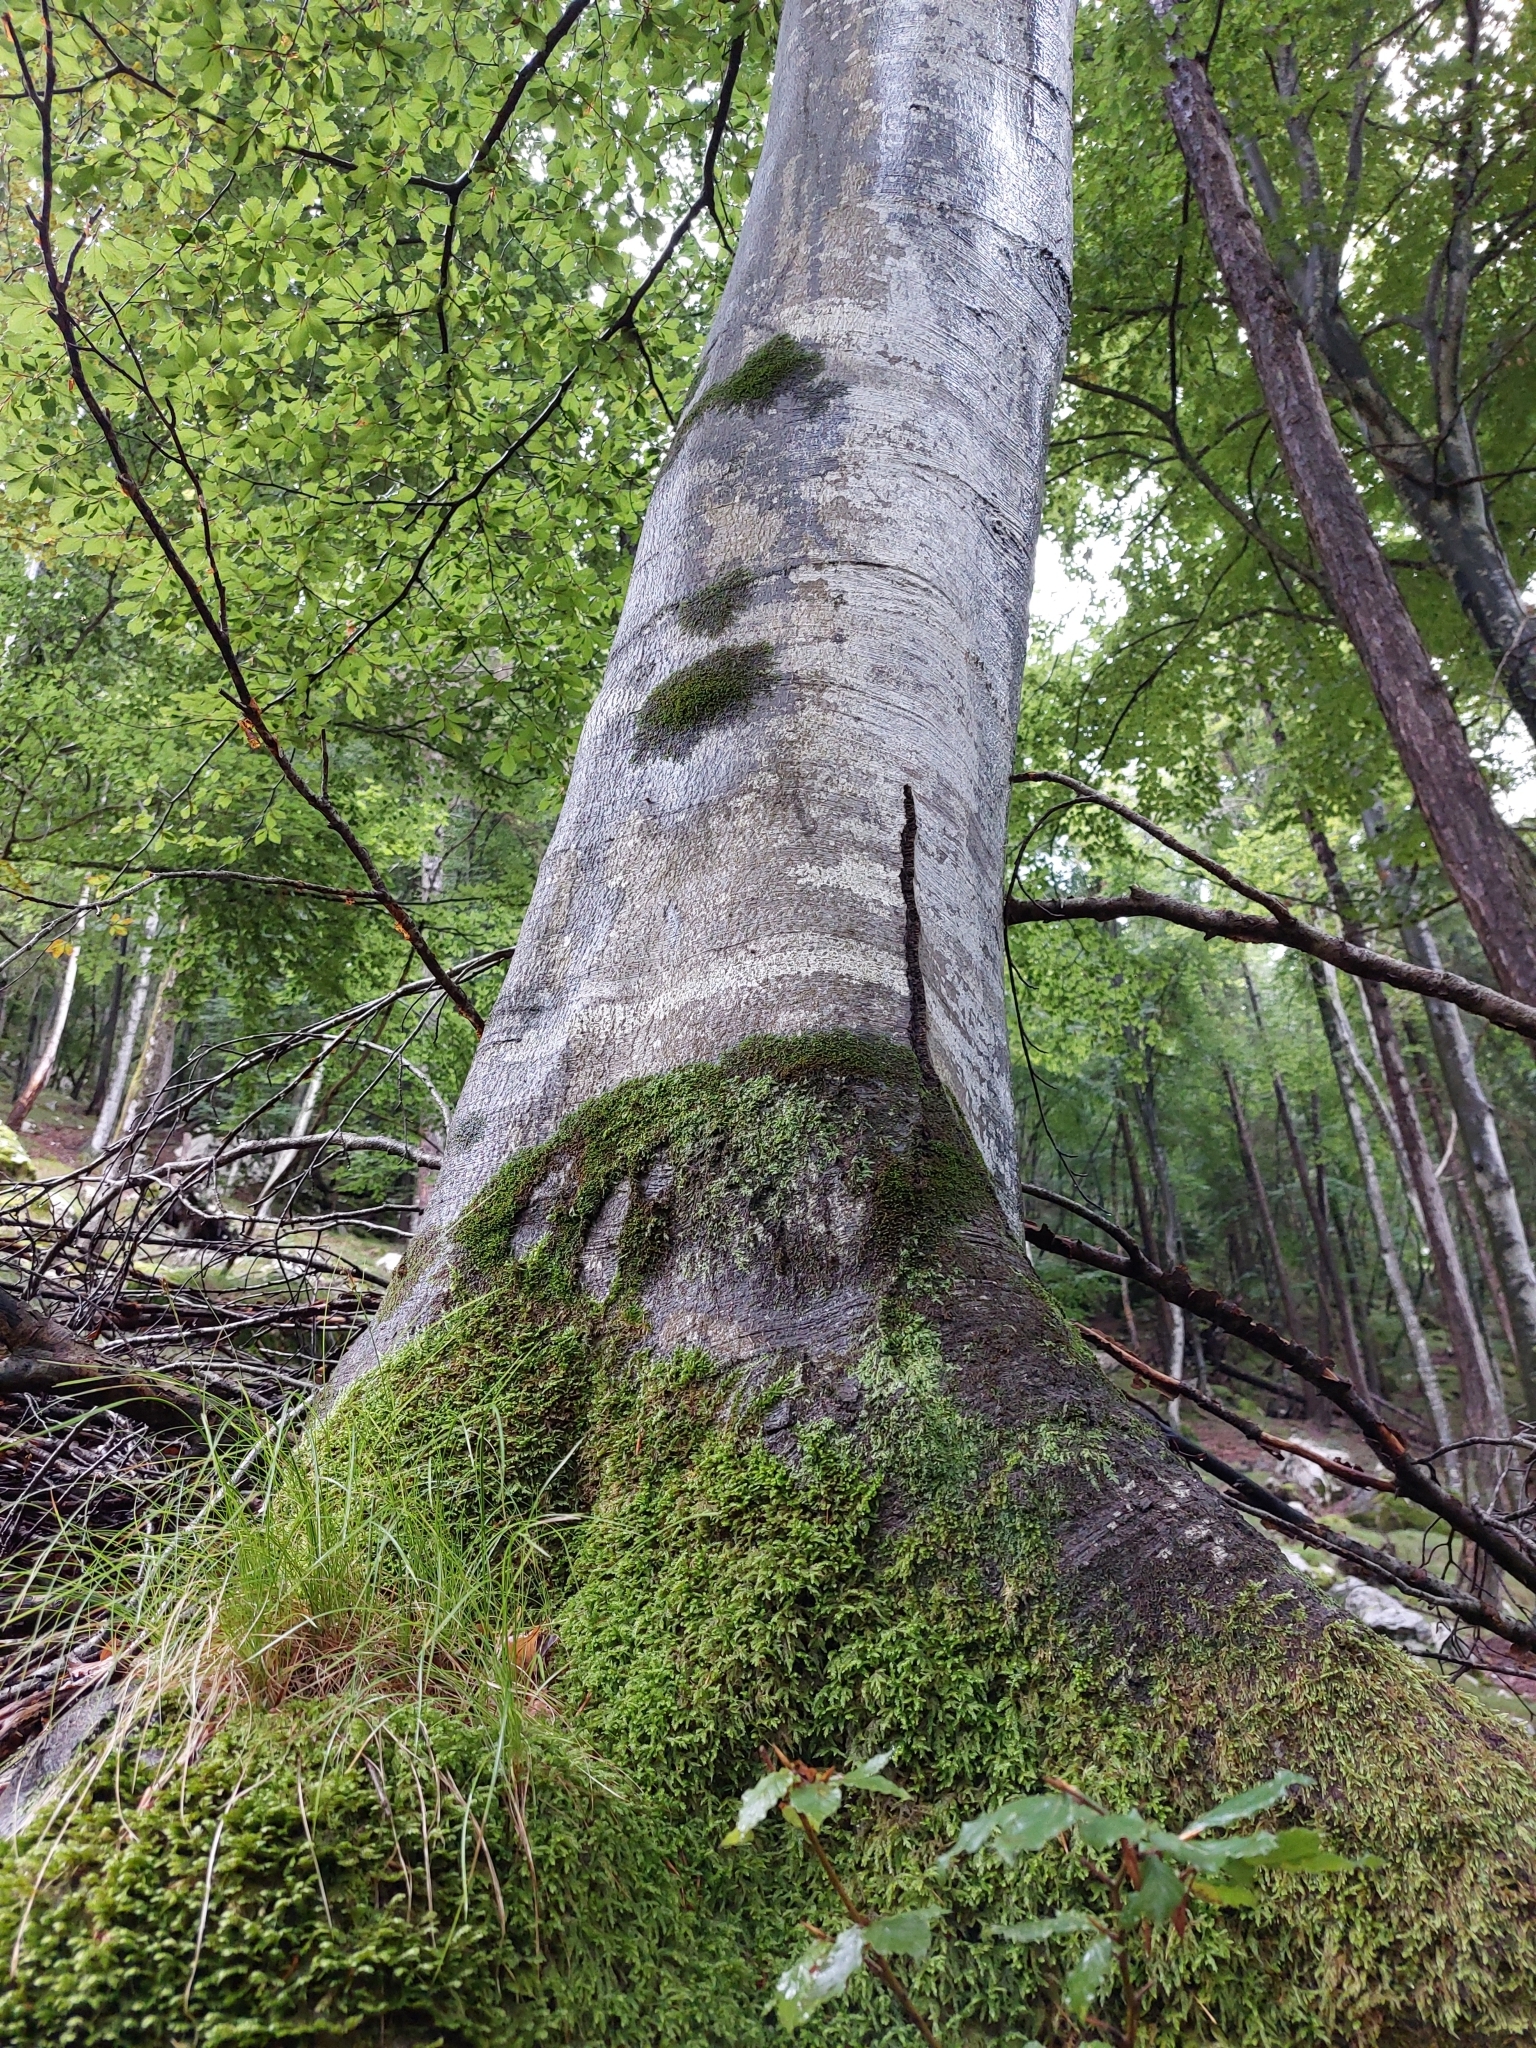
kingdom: Plantae
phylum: Tracheophyta
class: Magnoliopsida
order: Fagales
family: Fagaceae
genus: Fagus
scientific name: Fagus sylvatica
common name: Beech
